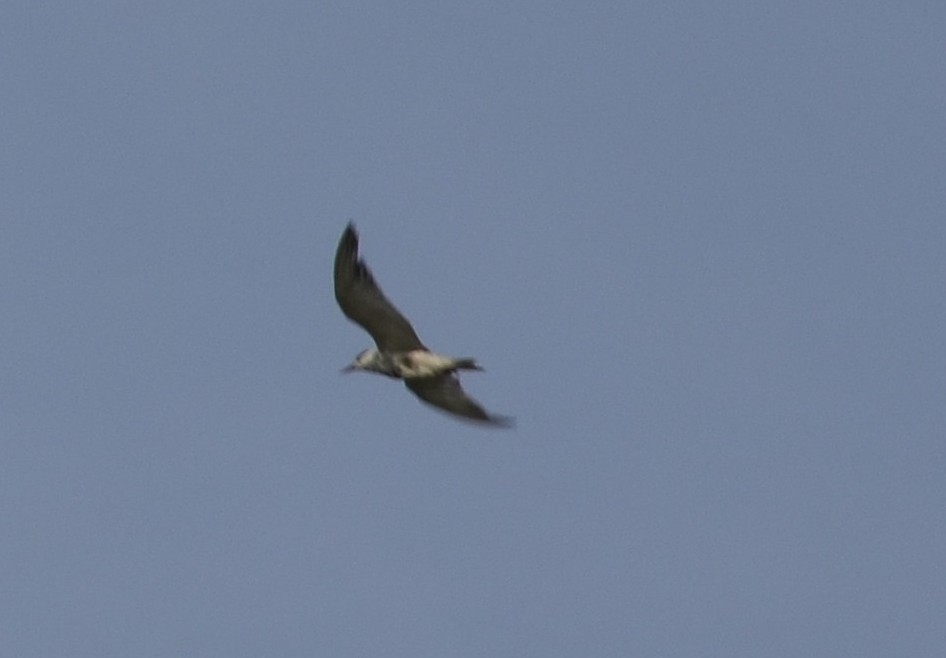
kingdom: Animalia
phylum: Chordata
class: Aves
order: Charadriiformes
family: Laridae
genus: Chlidonias
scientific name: Chlidonias hybrida
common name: Whiskered tern
